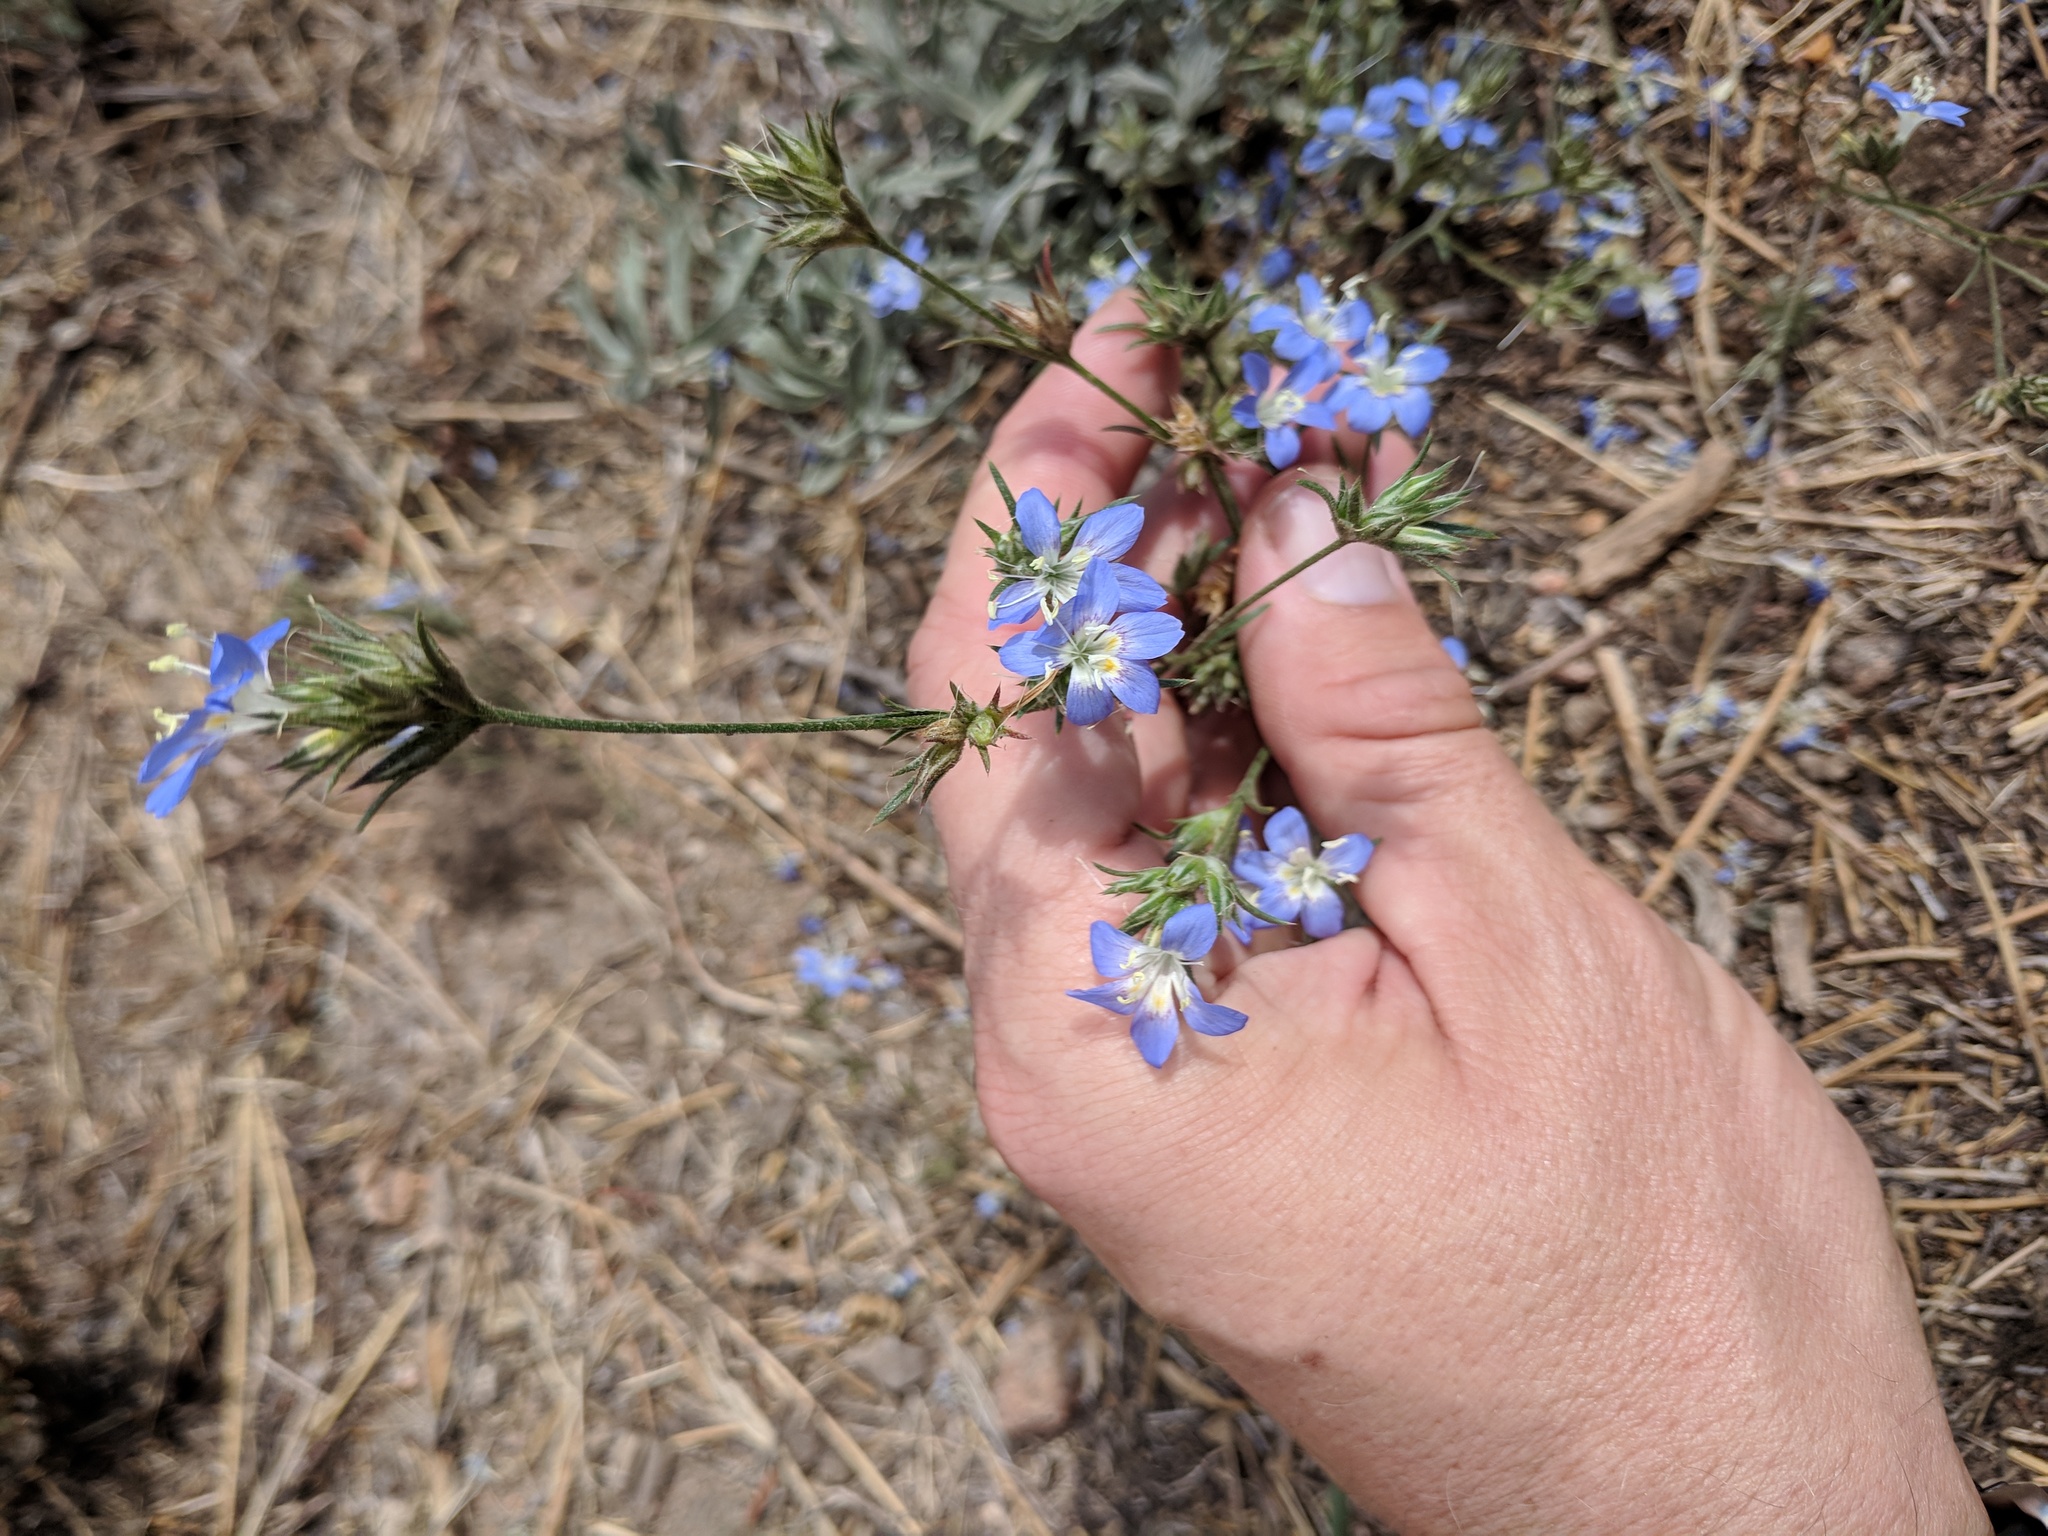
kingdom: Plantae
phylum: Tracheophyta
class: Magnoliopsida
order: Ericales
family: Polemoniaceae
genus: Eriastrum
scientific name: Eriastrum sapphirinum
